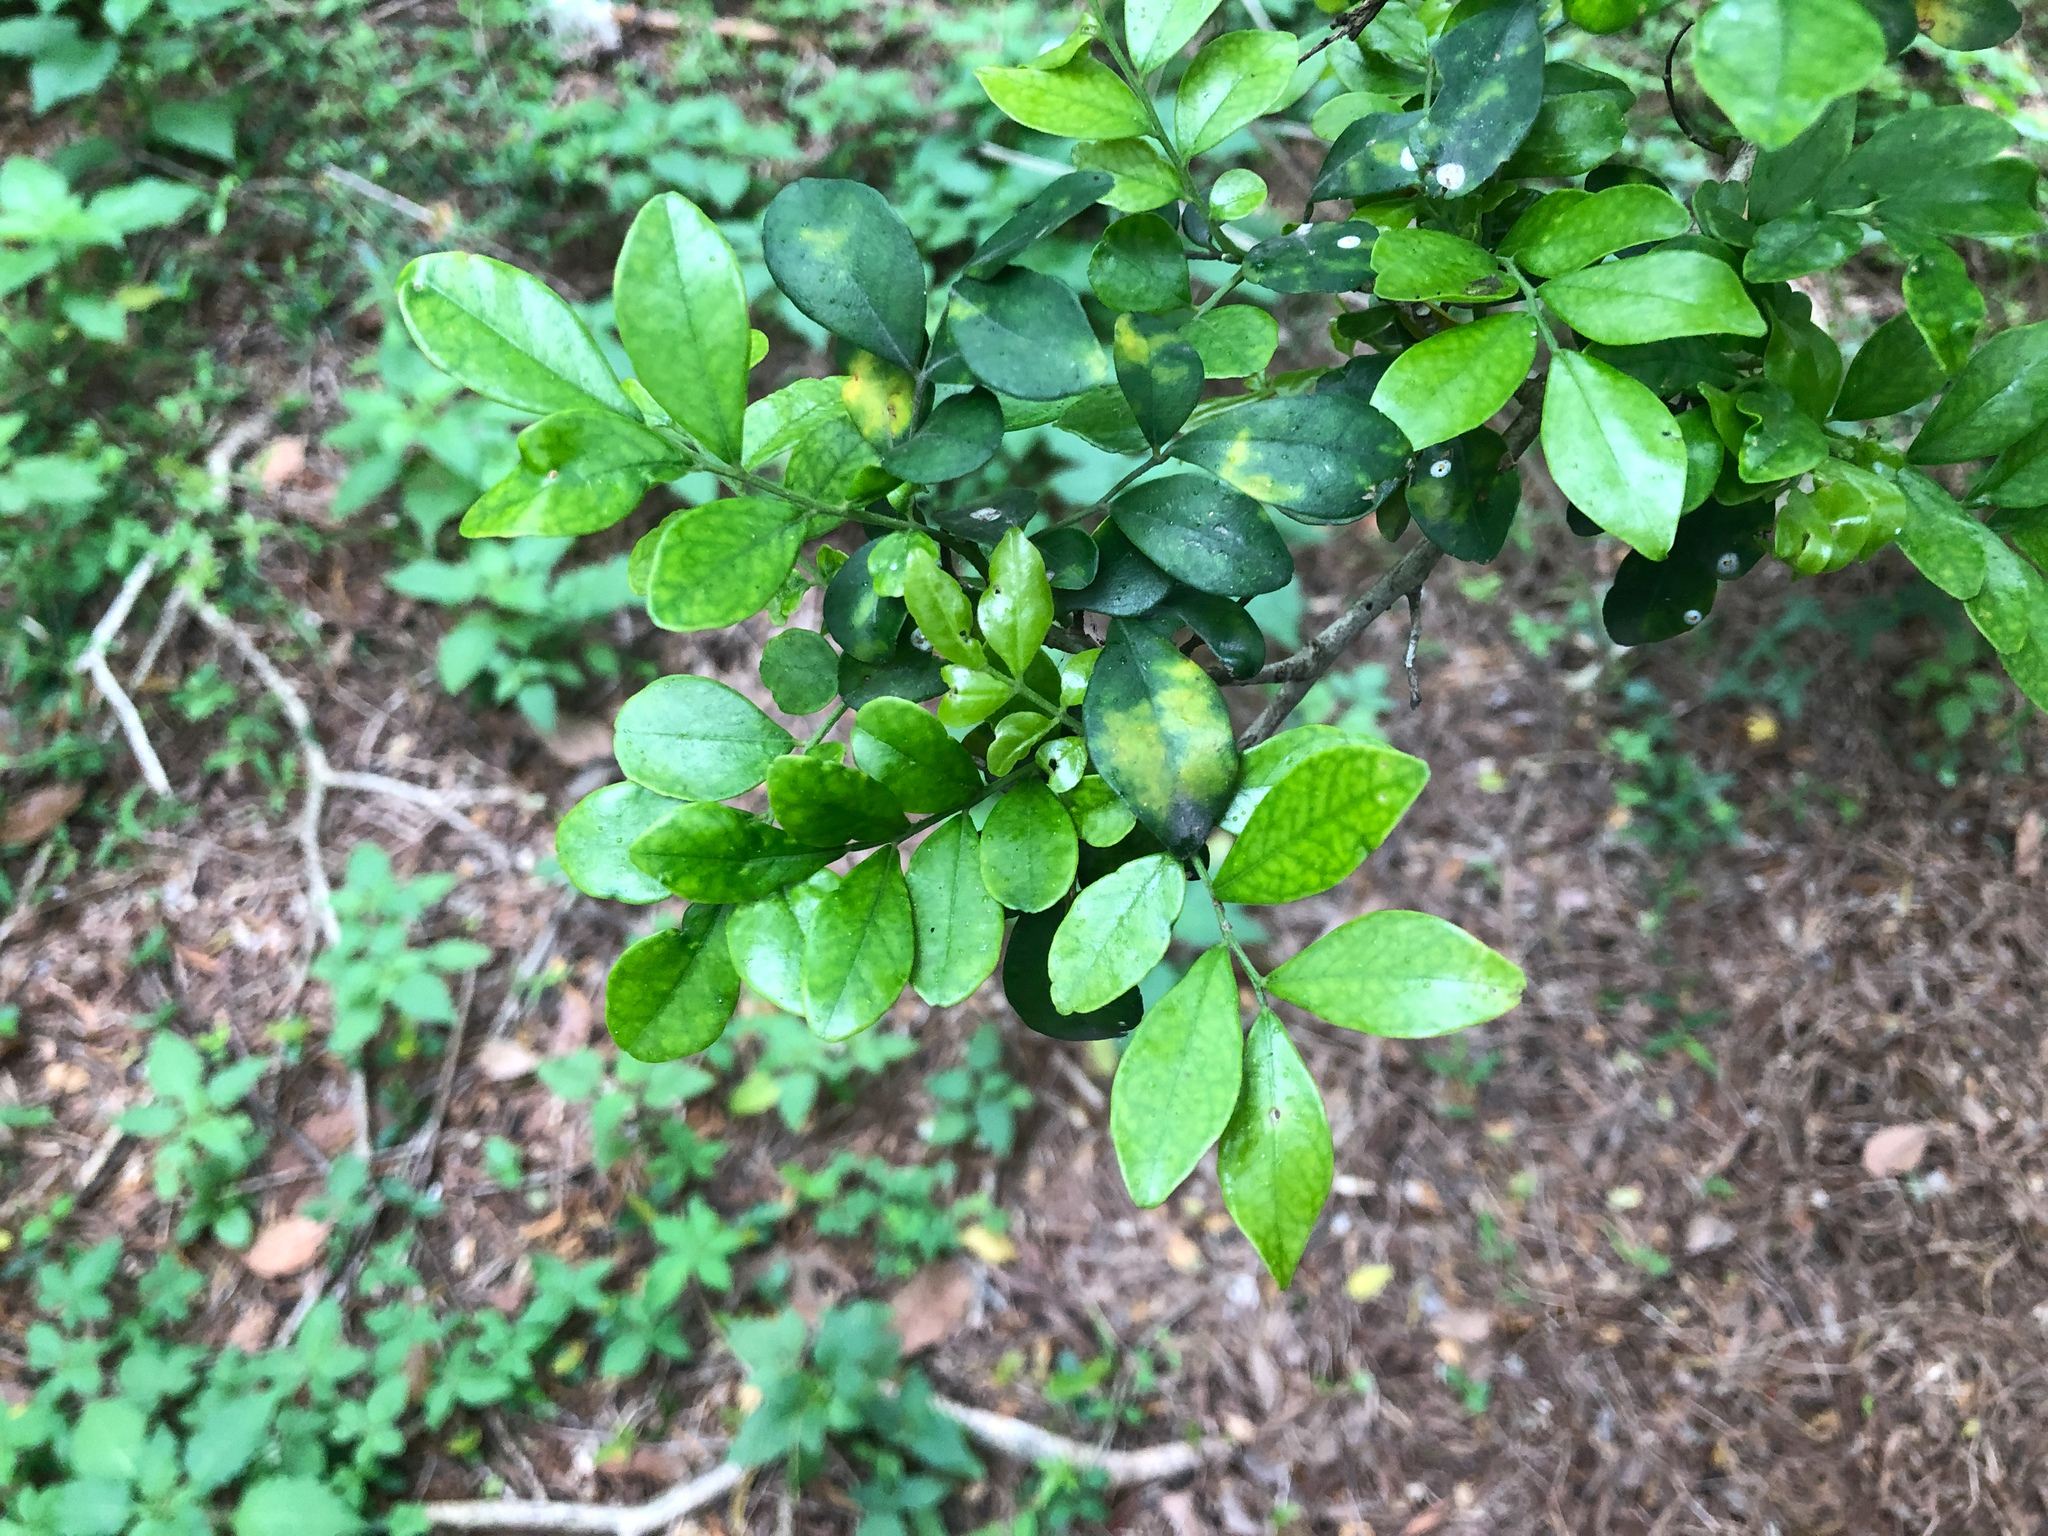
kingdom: Plantae
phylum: Tracheophyta
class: Magnoliopsida
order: Sapindales
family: Rutaceae
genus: Murraya
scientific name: Murraya paniculata
